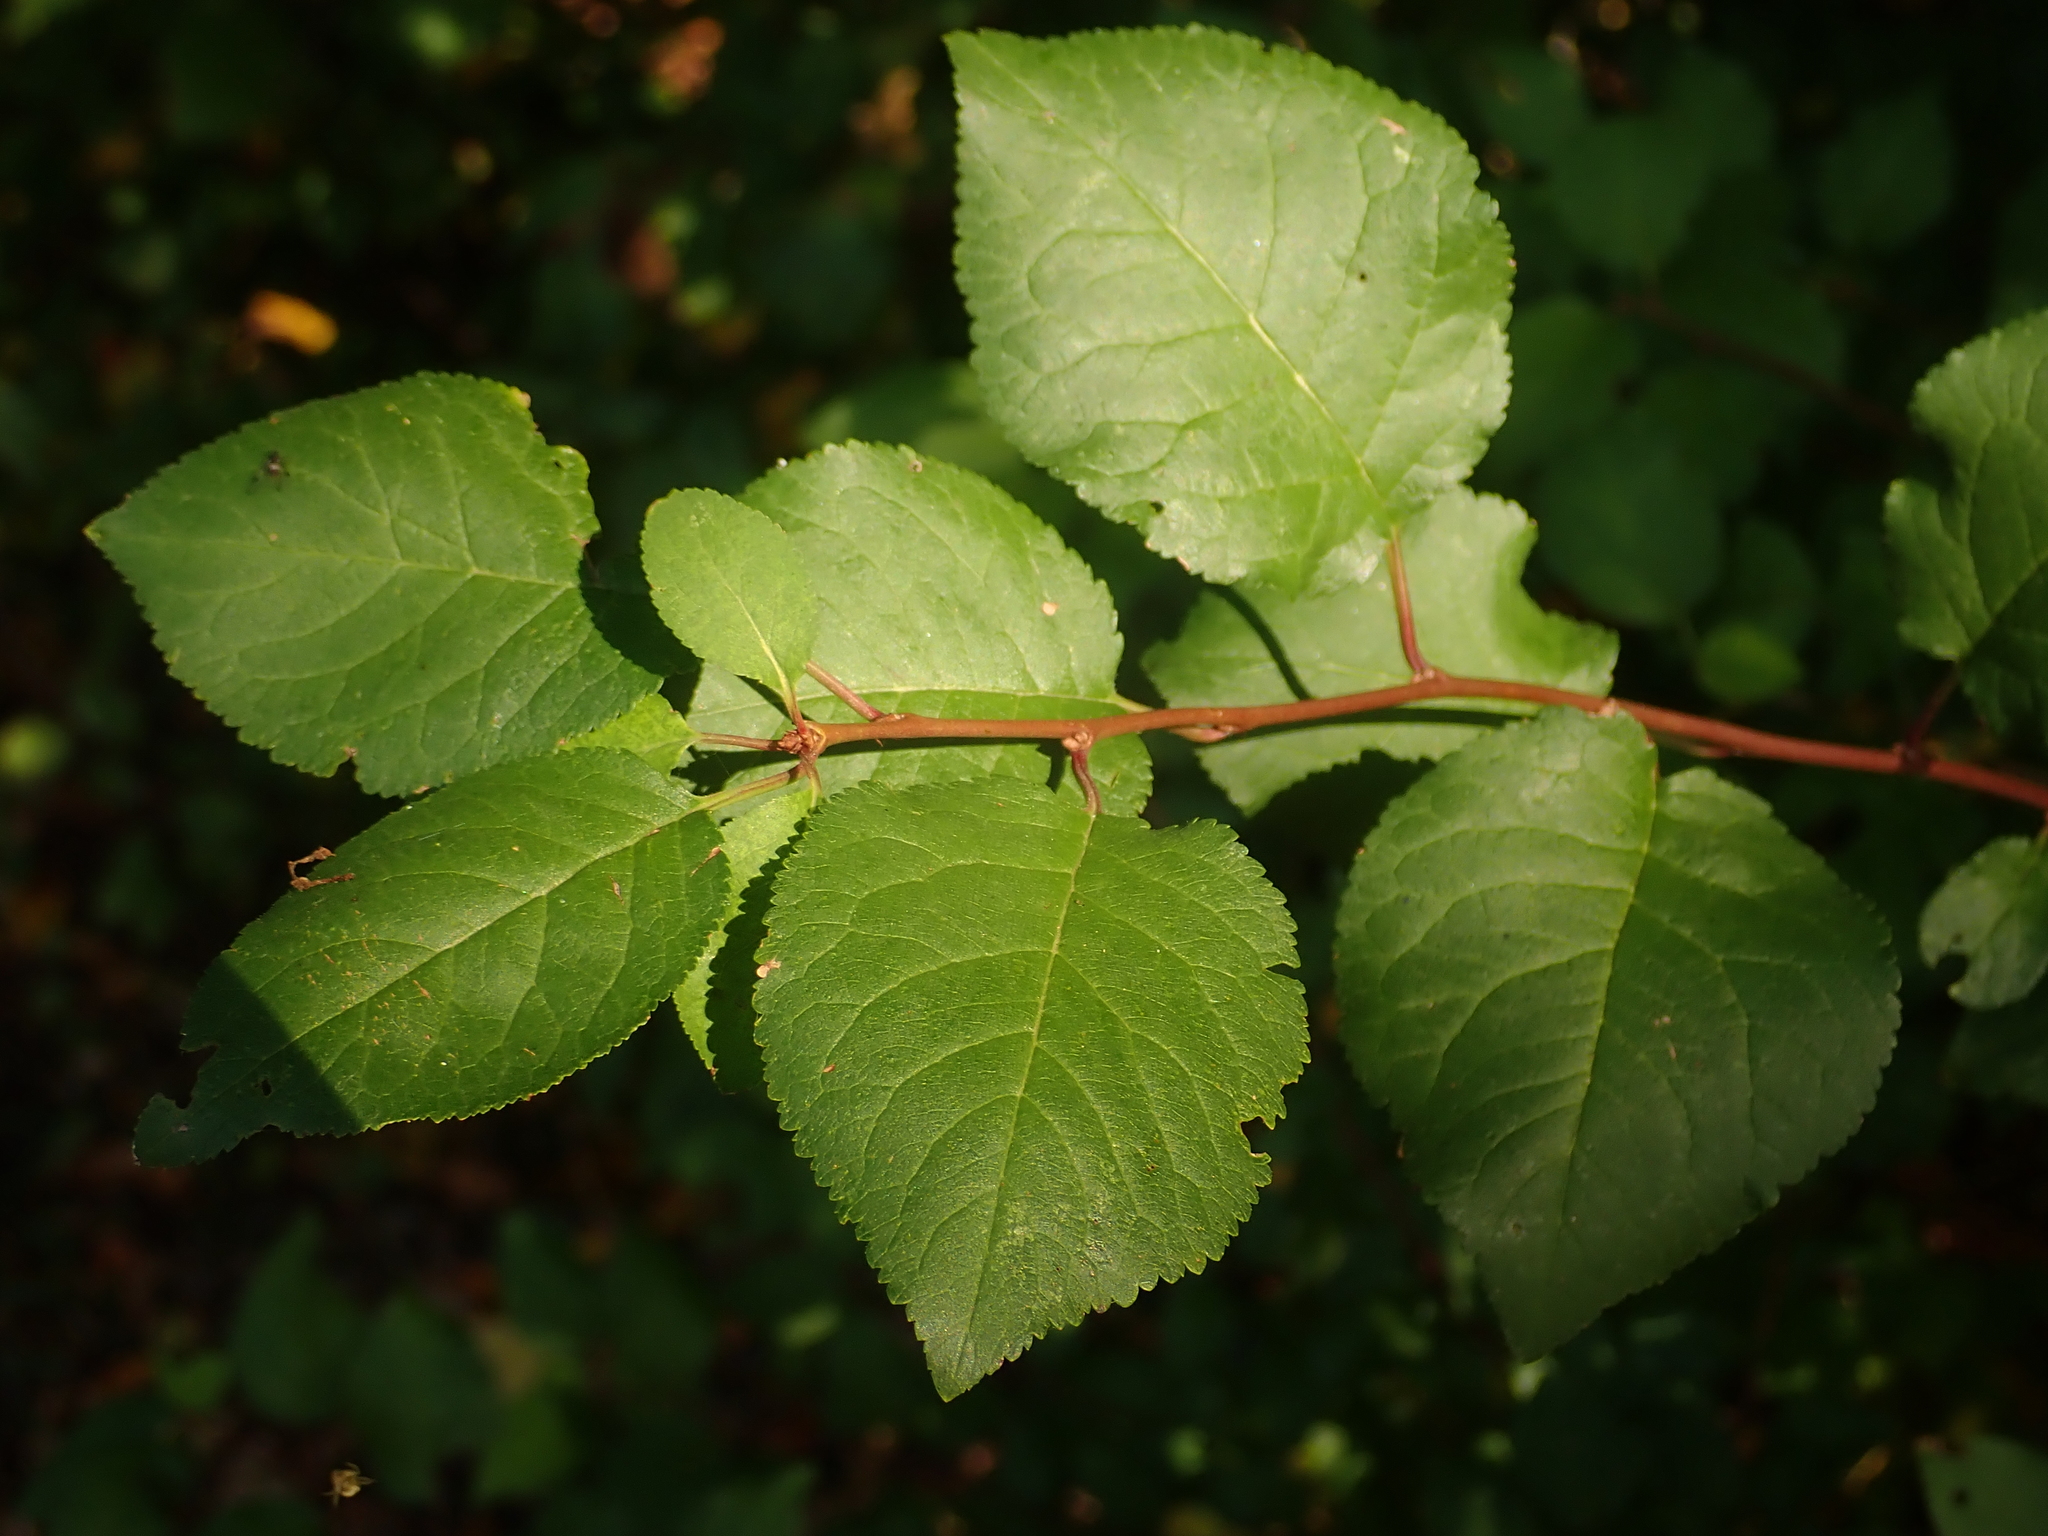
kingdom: Plantae
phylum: Tracheophyta
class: Magnoliopsida
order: Rosales
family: Rosaceae
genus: Prunus
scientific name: Prunus cerasifera
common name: Cherry plum
